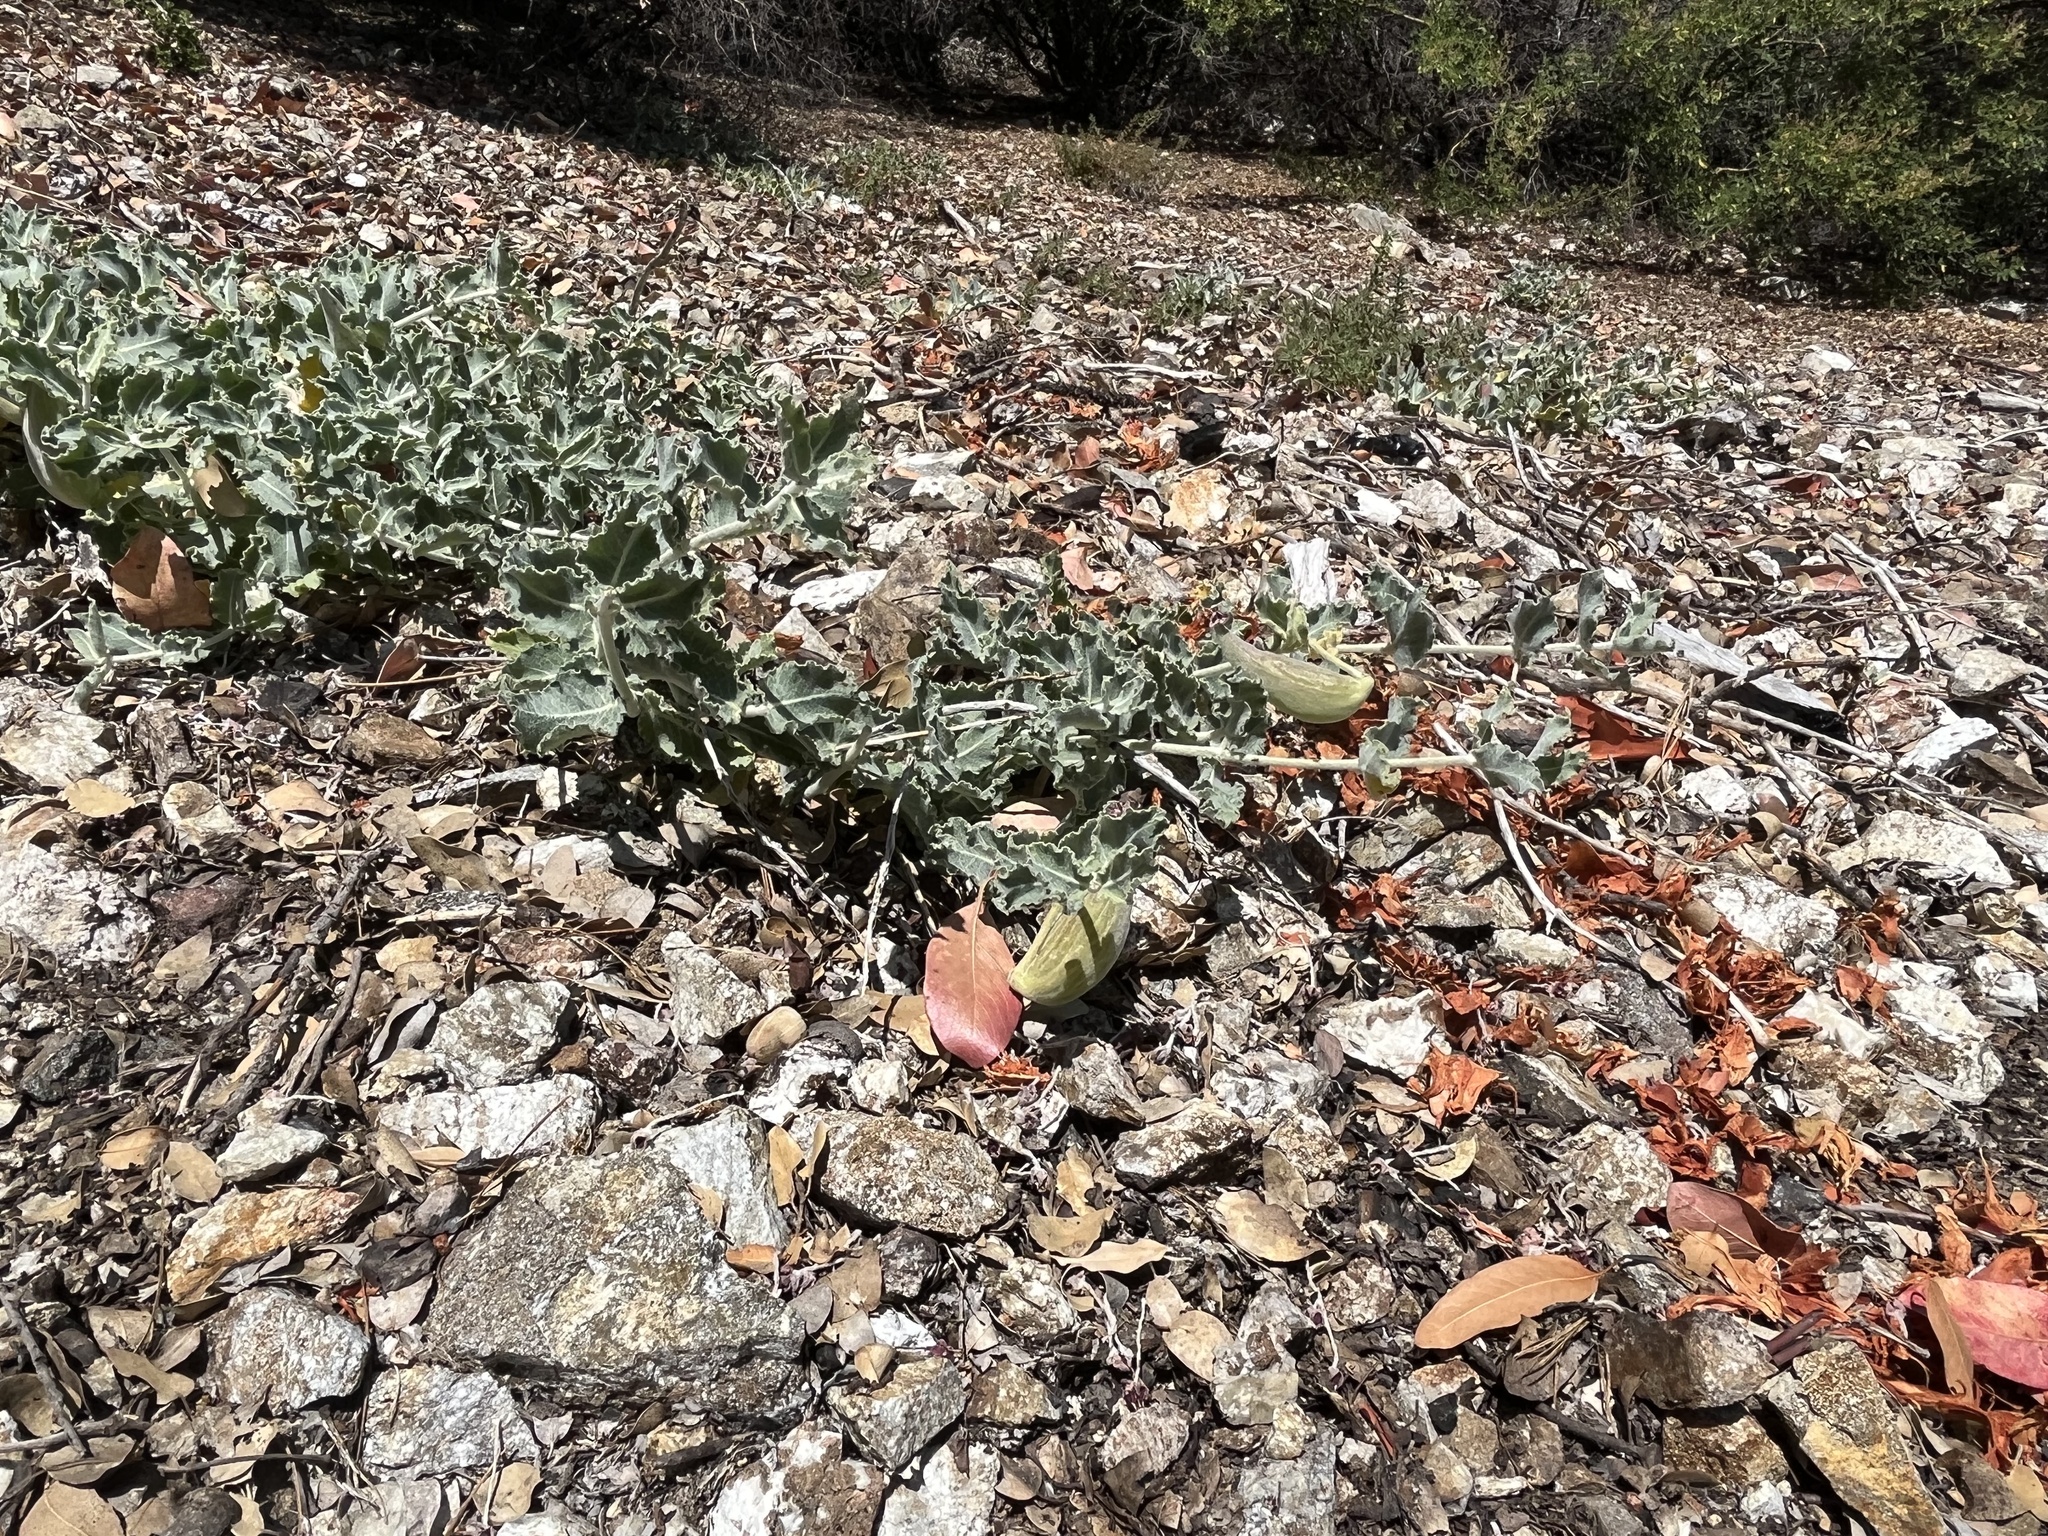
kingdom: Plantae
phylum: Tracheophyta
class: Magnoliopsida
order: Gentianales
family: Apocynaceae
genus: Asclepias
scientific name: Asclepias californica
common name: California milkweed
